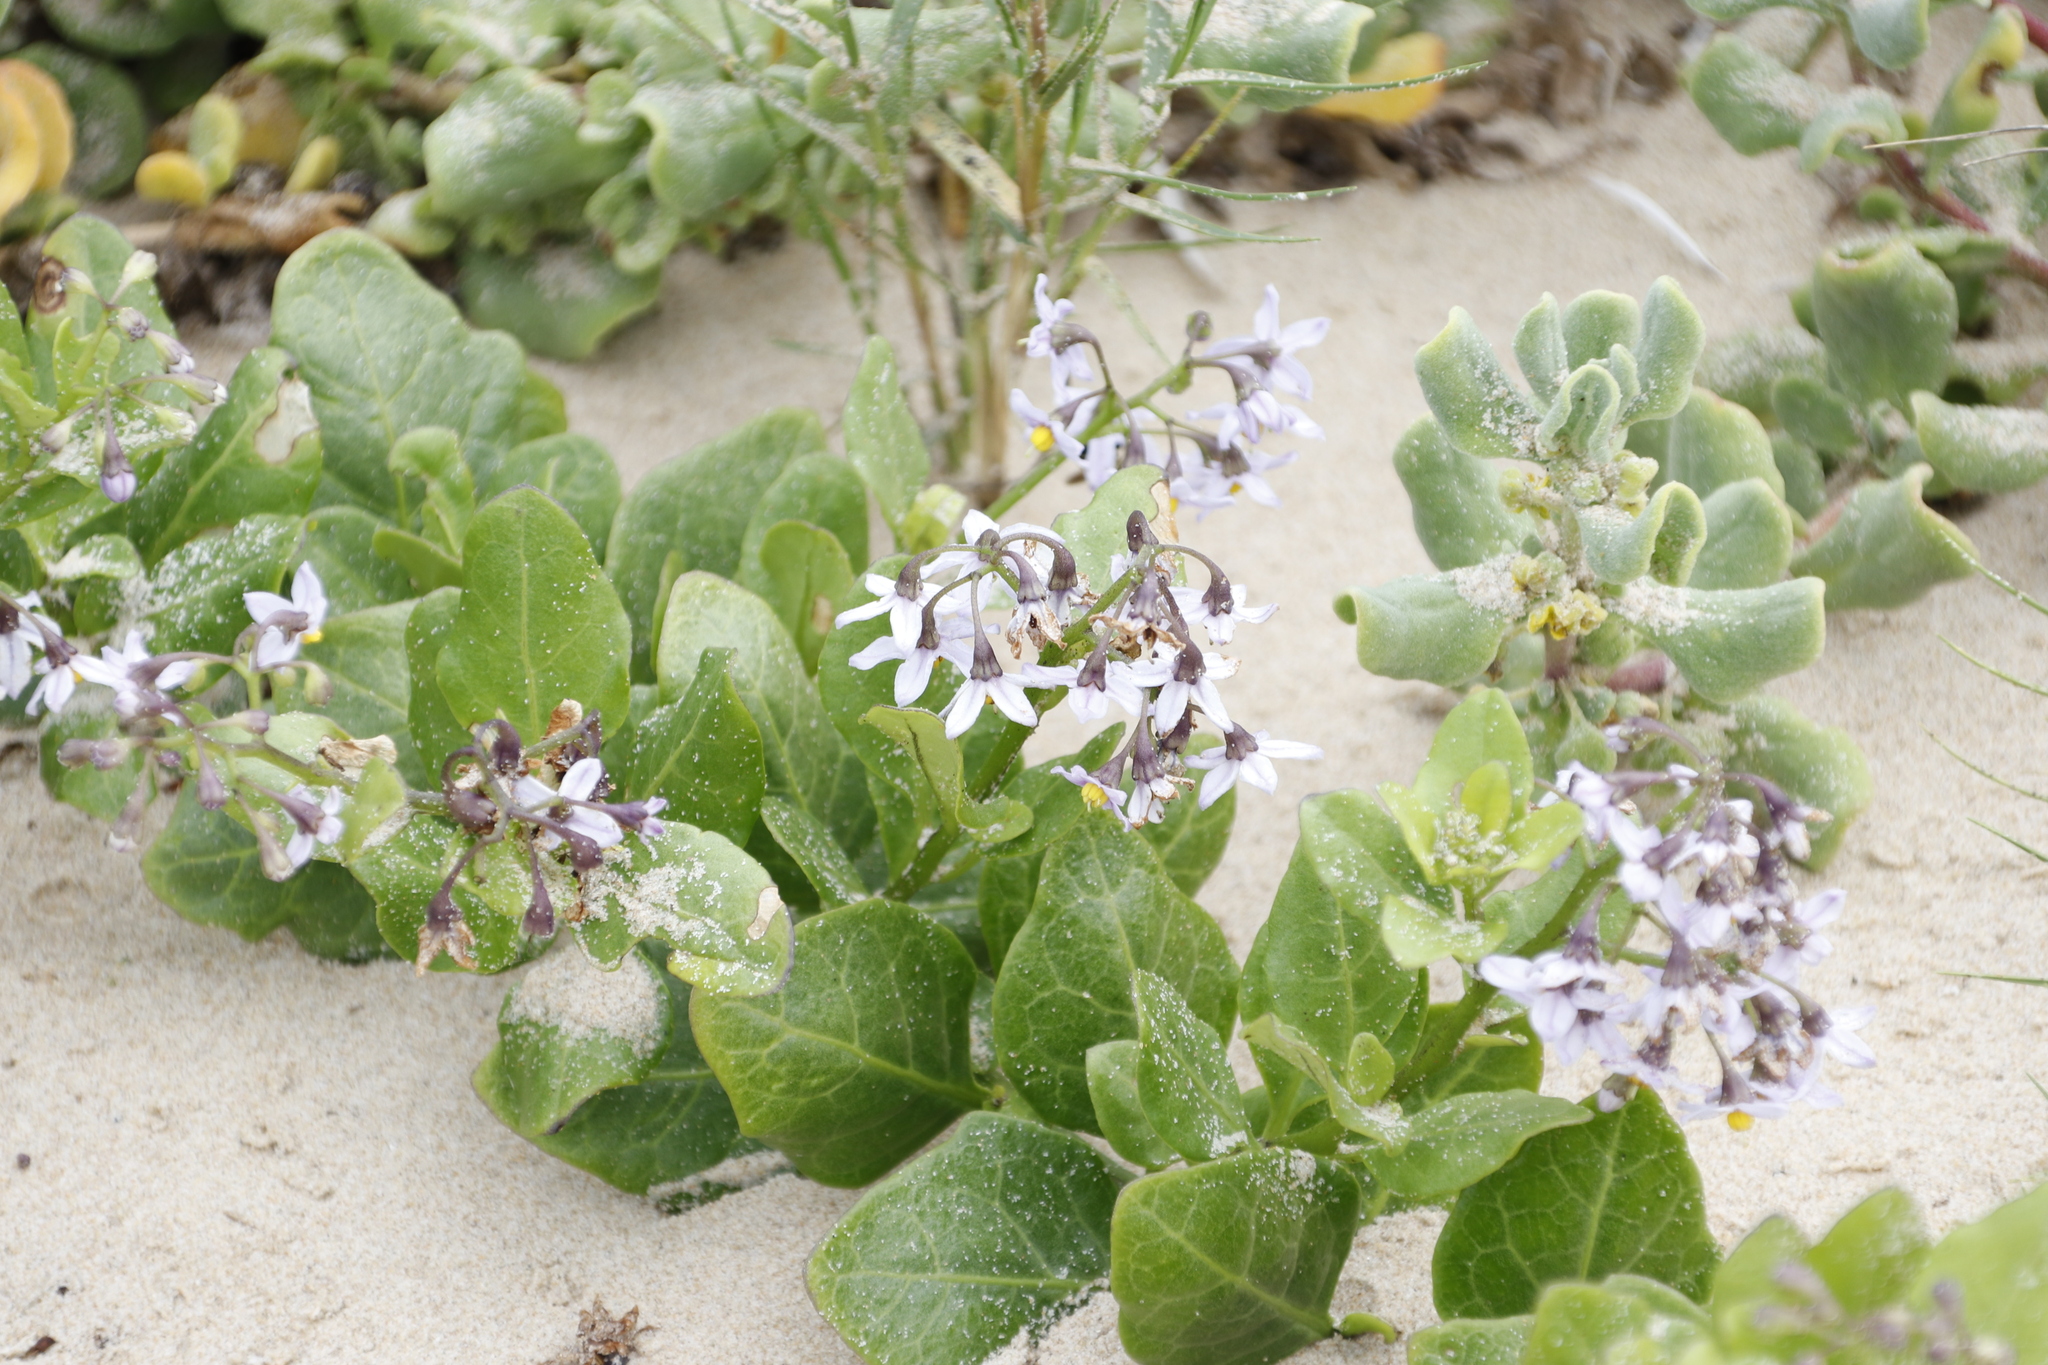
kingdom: Plantae
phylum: Tracheophyta
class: Magnoliopsida
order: Solanales
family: Solanaceae
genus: Solanum
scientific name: Solanum africanum
